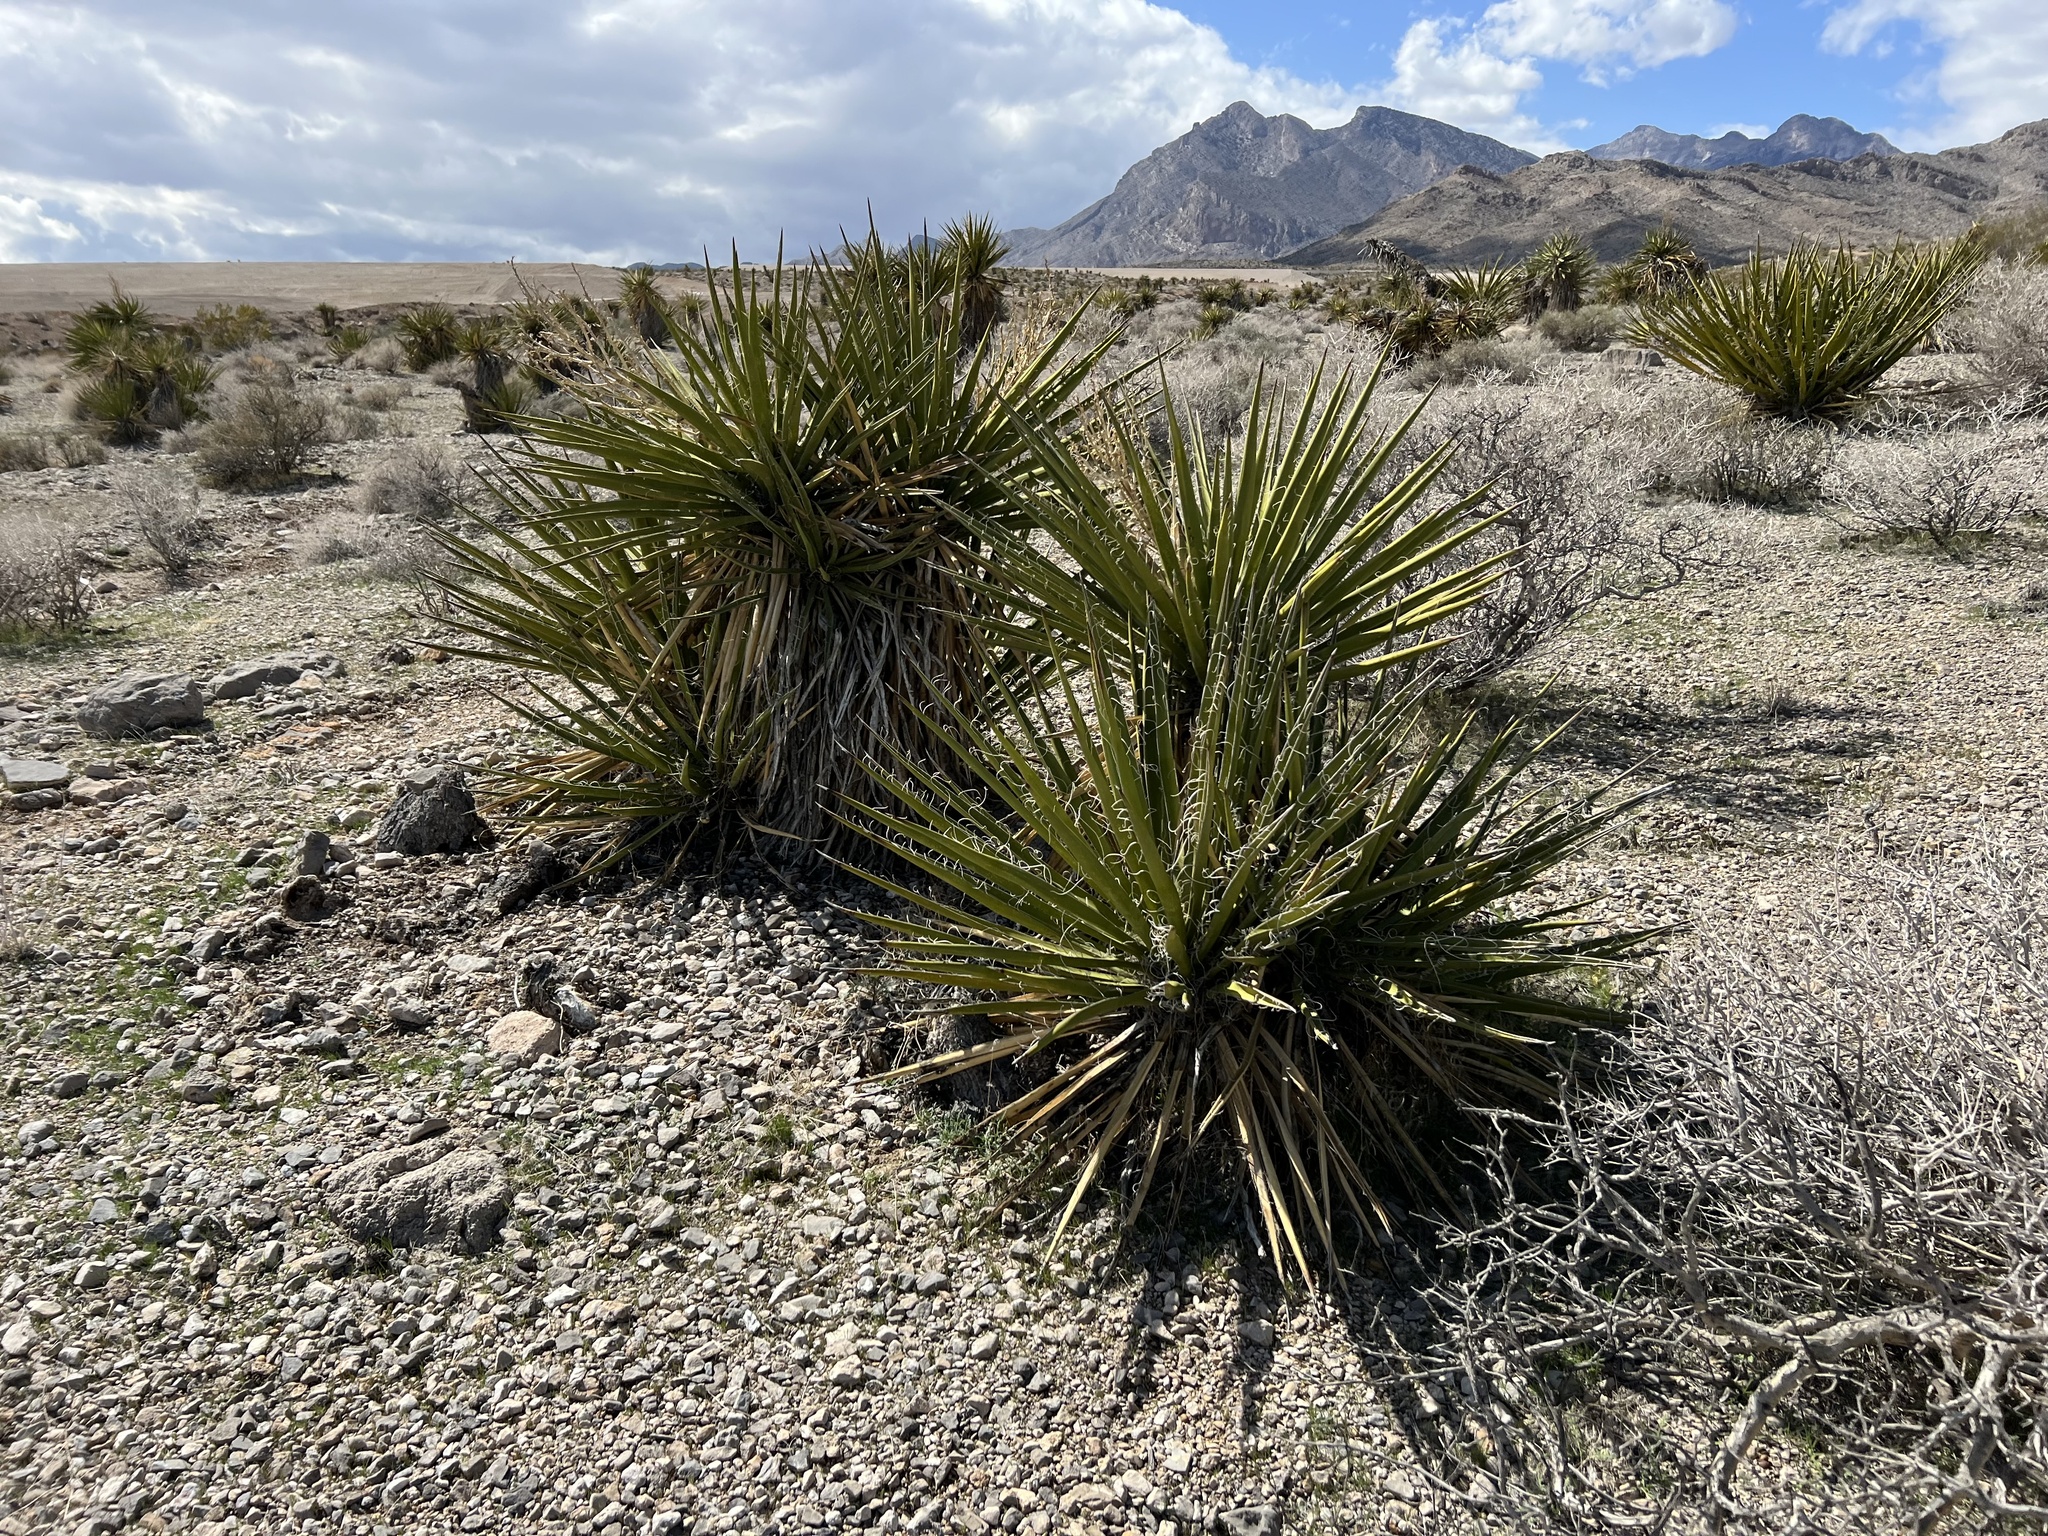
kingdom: Plantae
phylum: Tracheophyta
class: Liliopsida
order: Asparagales
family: Asparagaceae
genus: Yucca
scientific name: Yucca schidigera
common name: Mojave yucca
